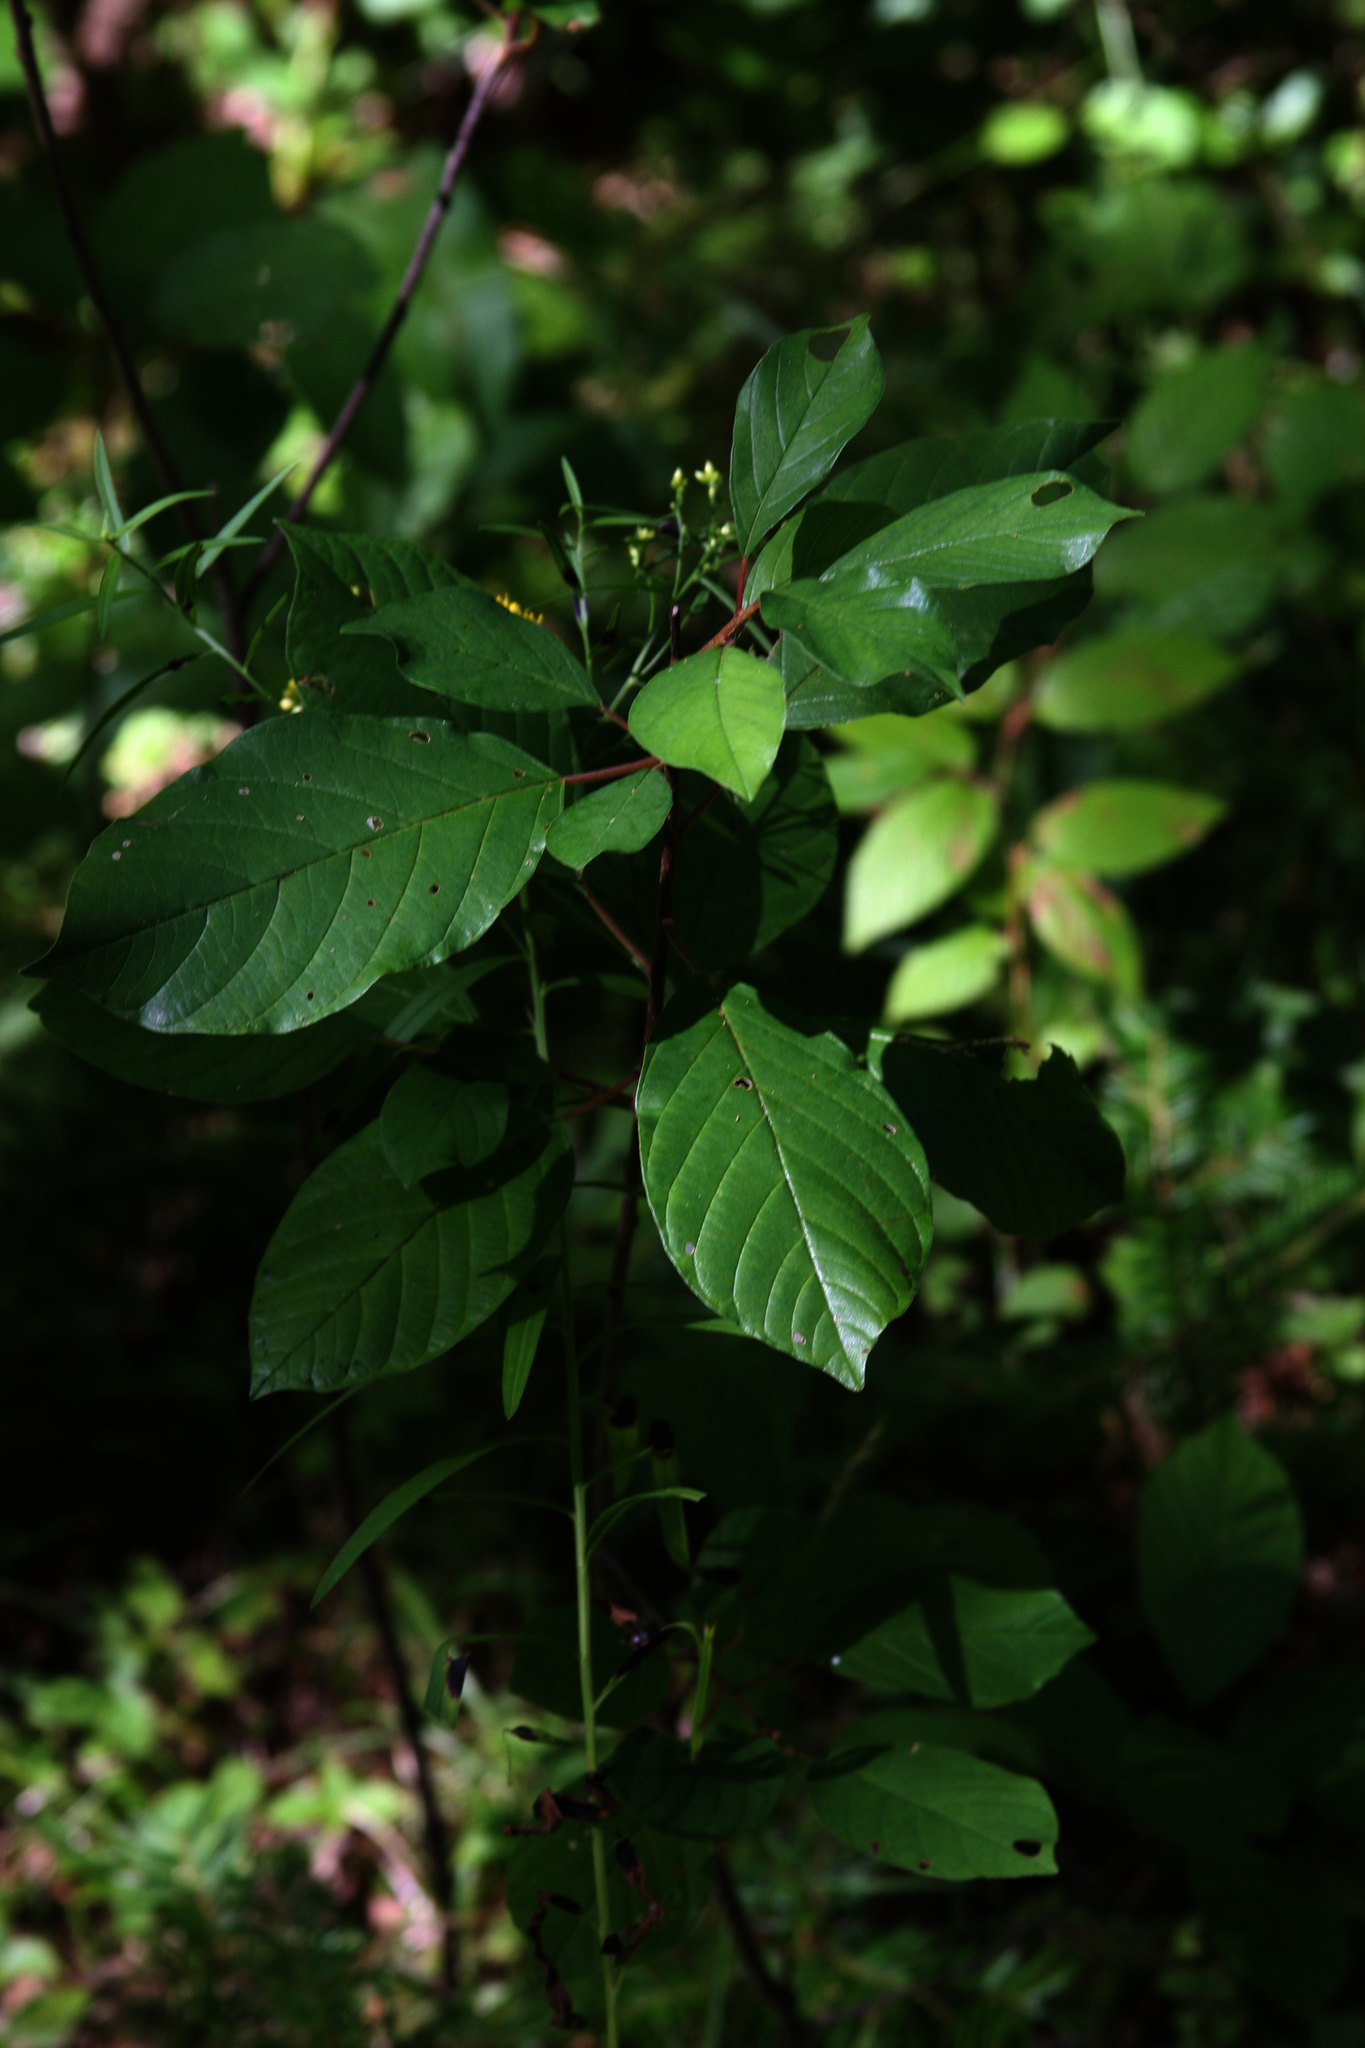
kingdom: Plantae
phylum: Tracheophyta
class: Magnoliopsida
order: Rosales
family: Rhamnaceae
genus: Frangula
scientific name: Frangula alnus
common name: Alder buckthorn
